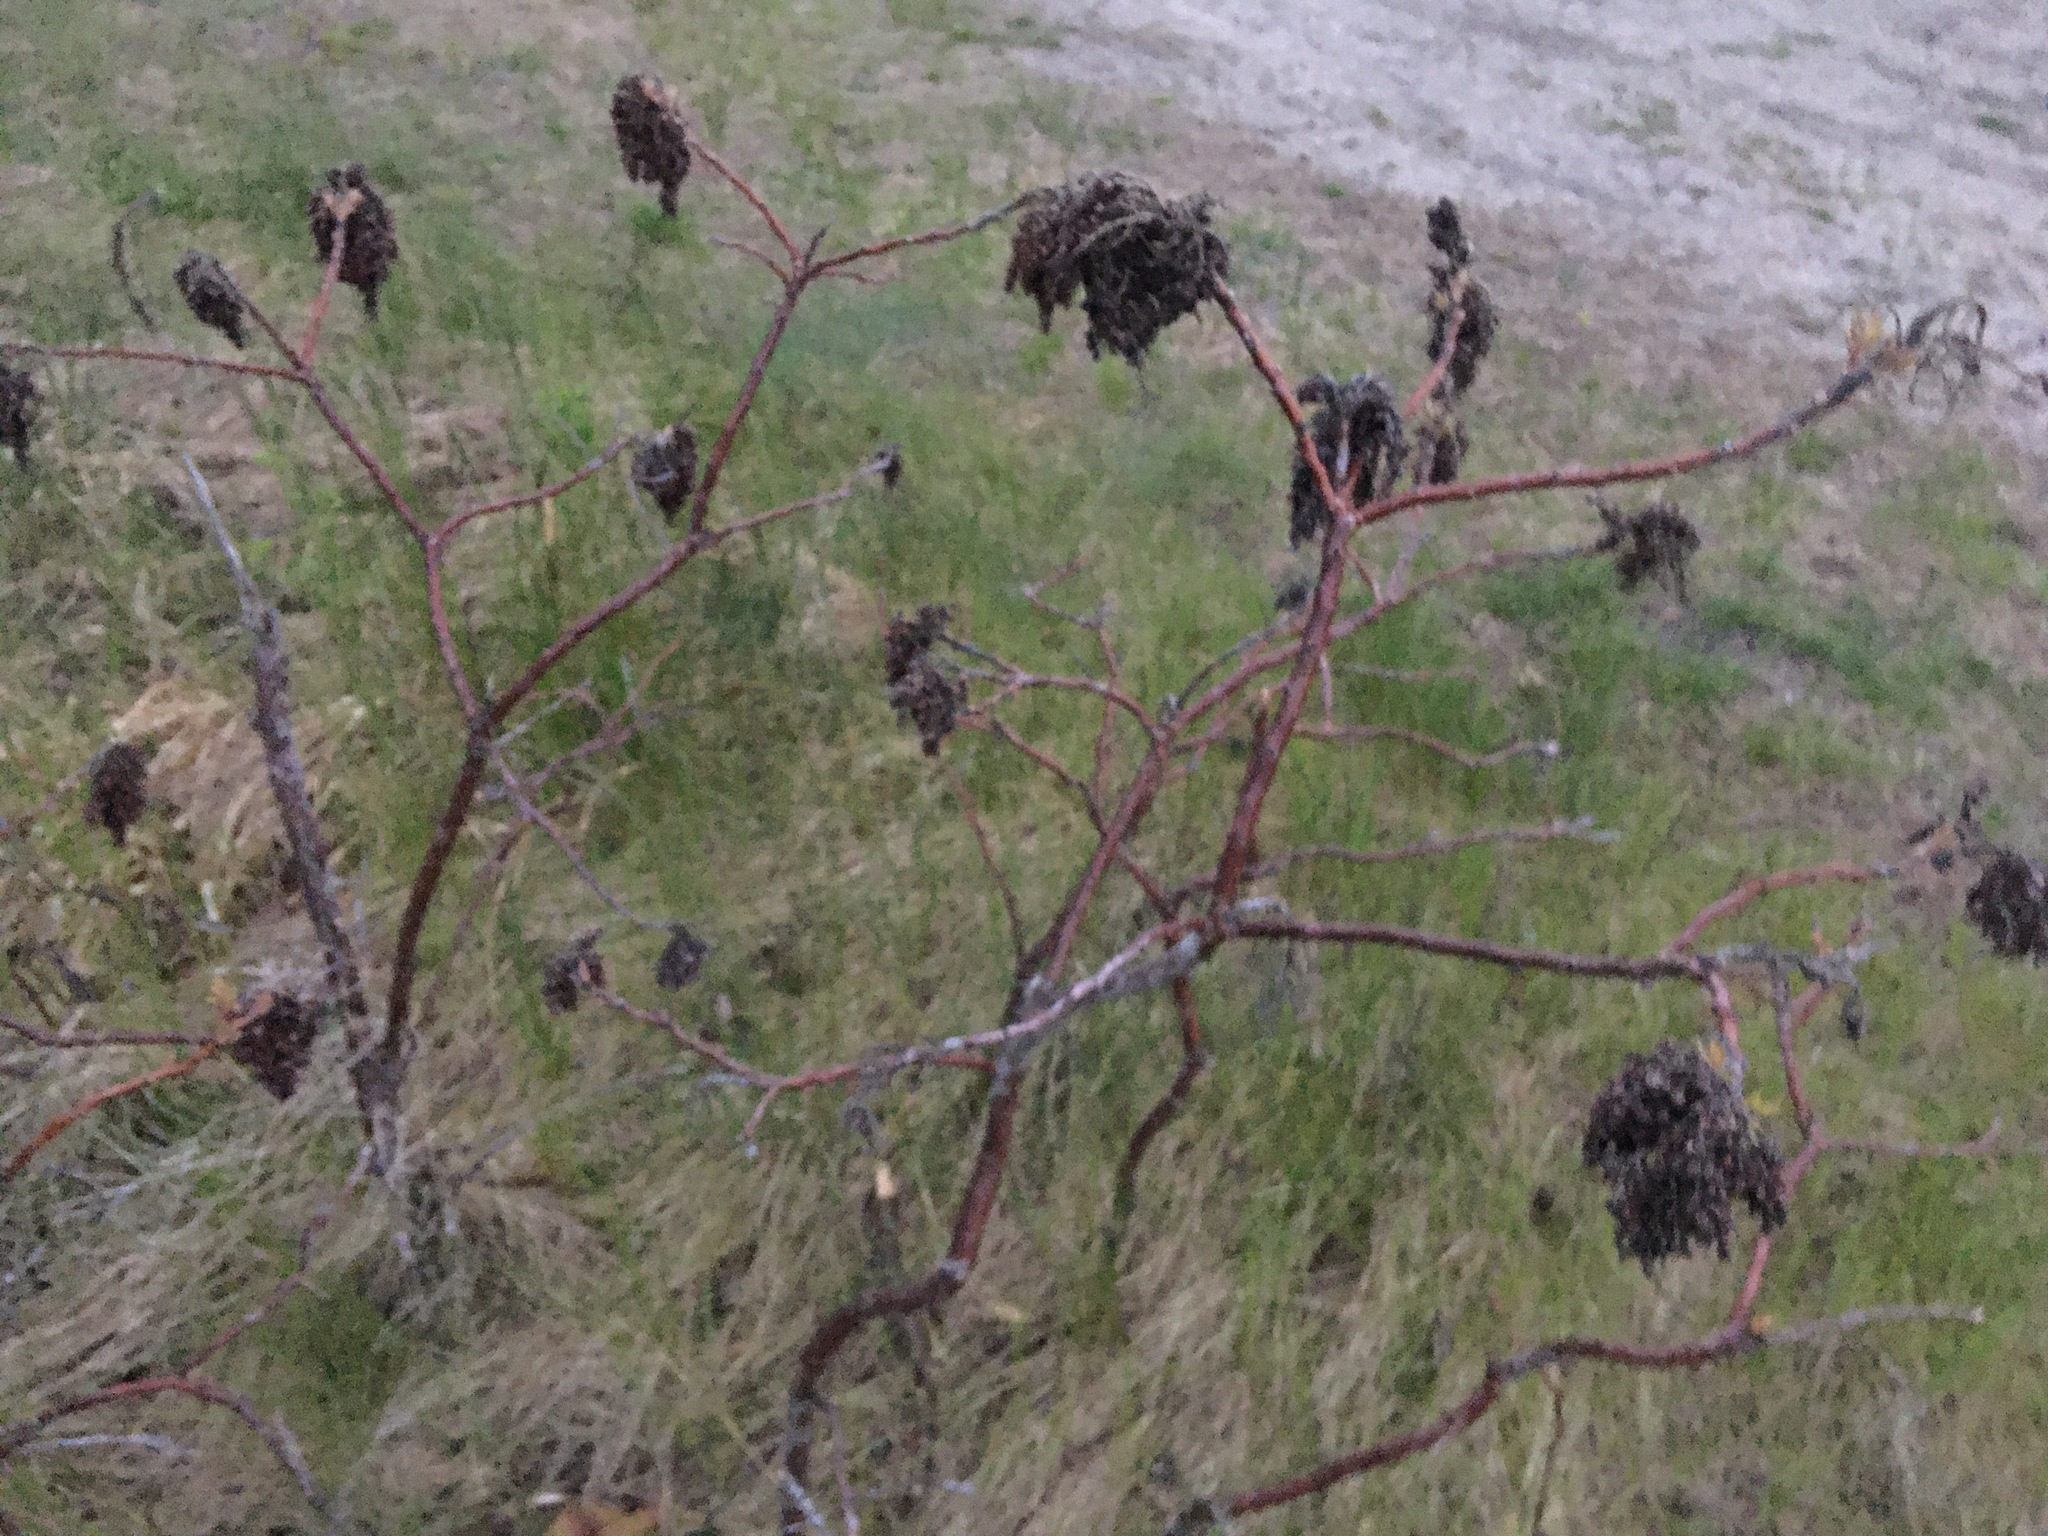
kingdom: Plantae
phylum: Tracheophyta
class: Magnoliopsida
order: Sapindales
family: Anacardiaceae
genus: Rhus
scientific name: Rhus
